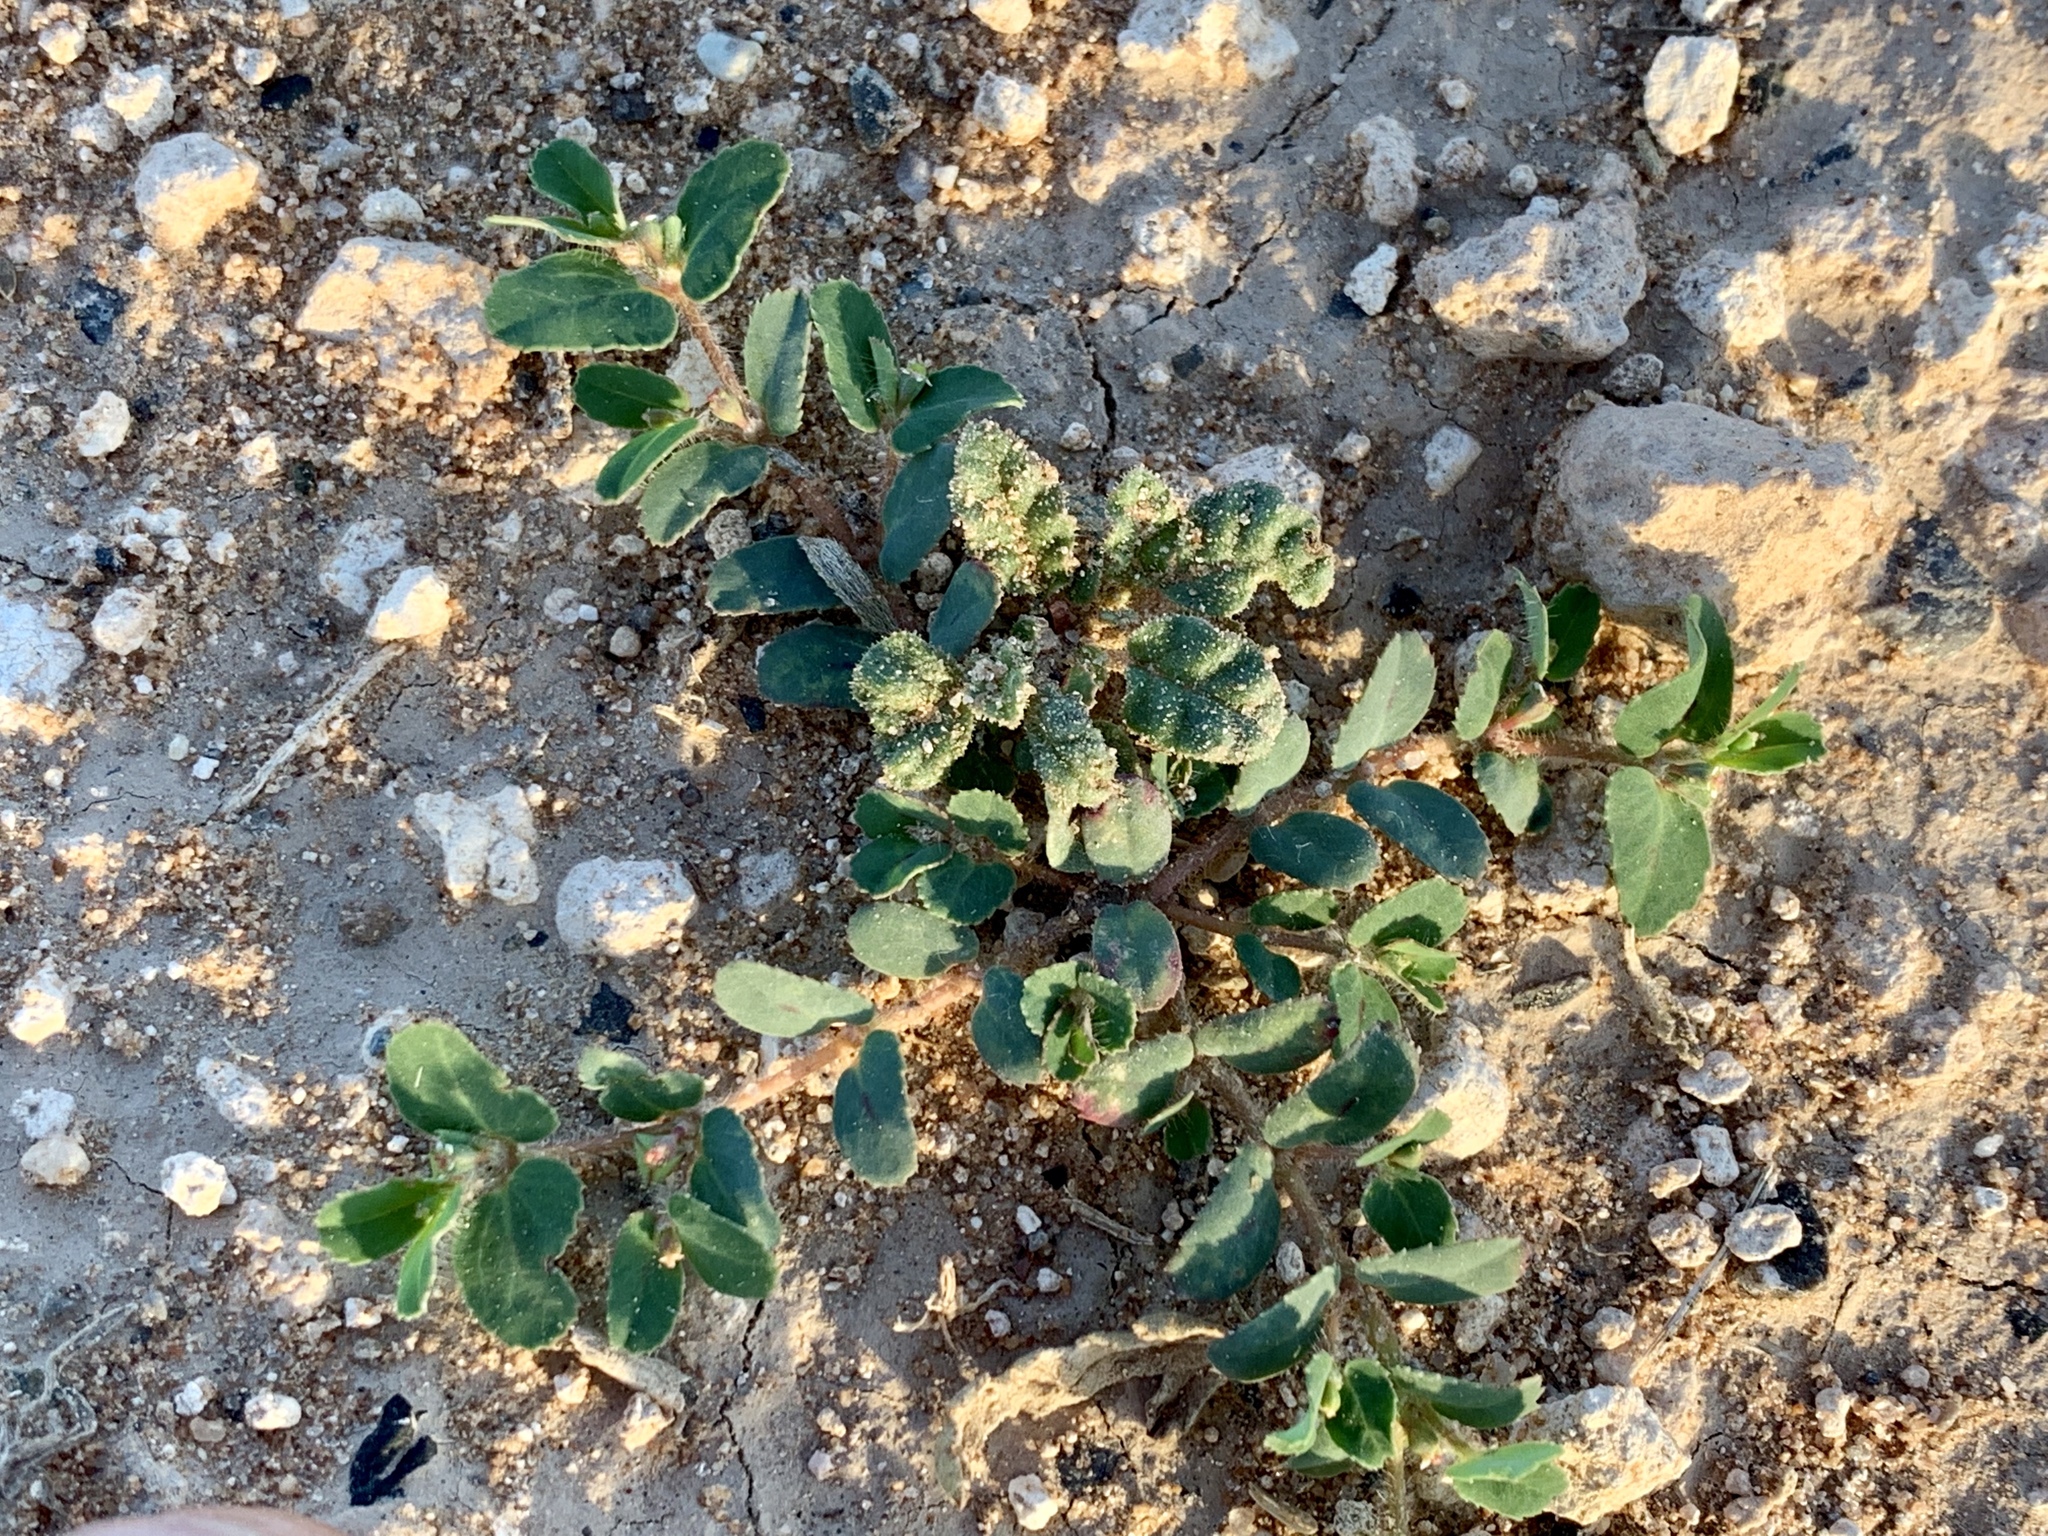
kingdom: Plantae
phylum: Tracheophyta
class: Magnoliopsida
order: Malpighiales
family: Euphorbiaceae
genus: Euphorbia
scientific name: Euphorbia serrula
